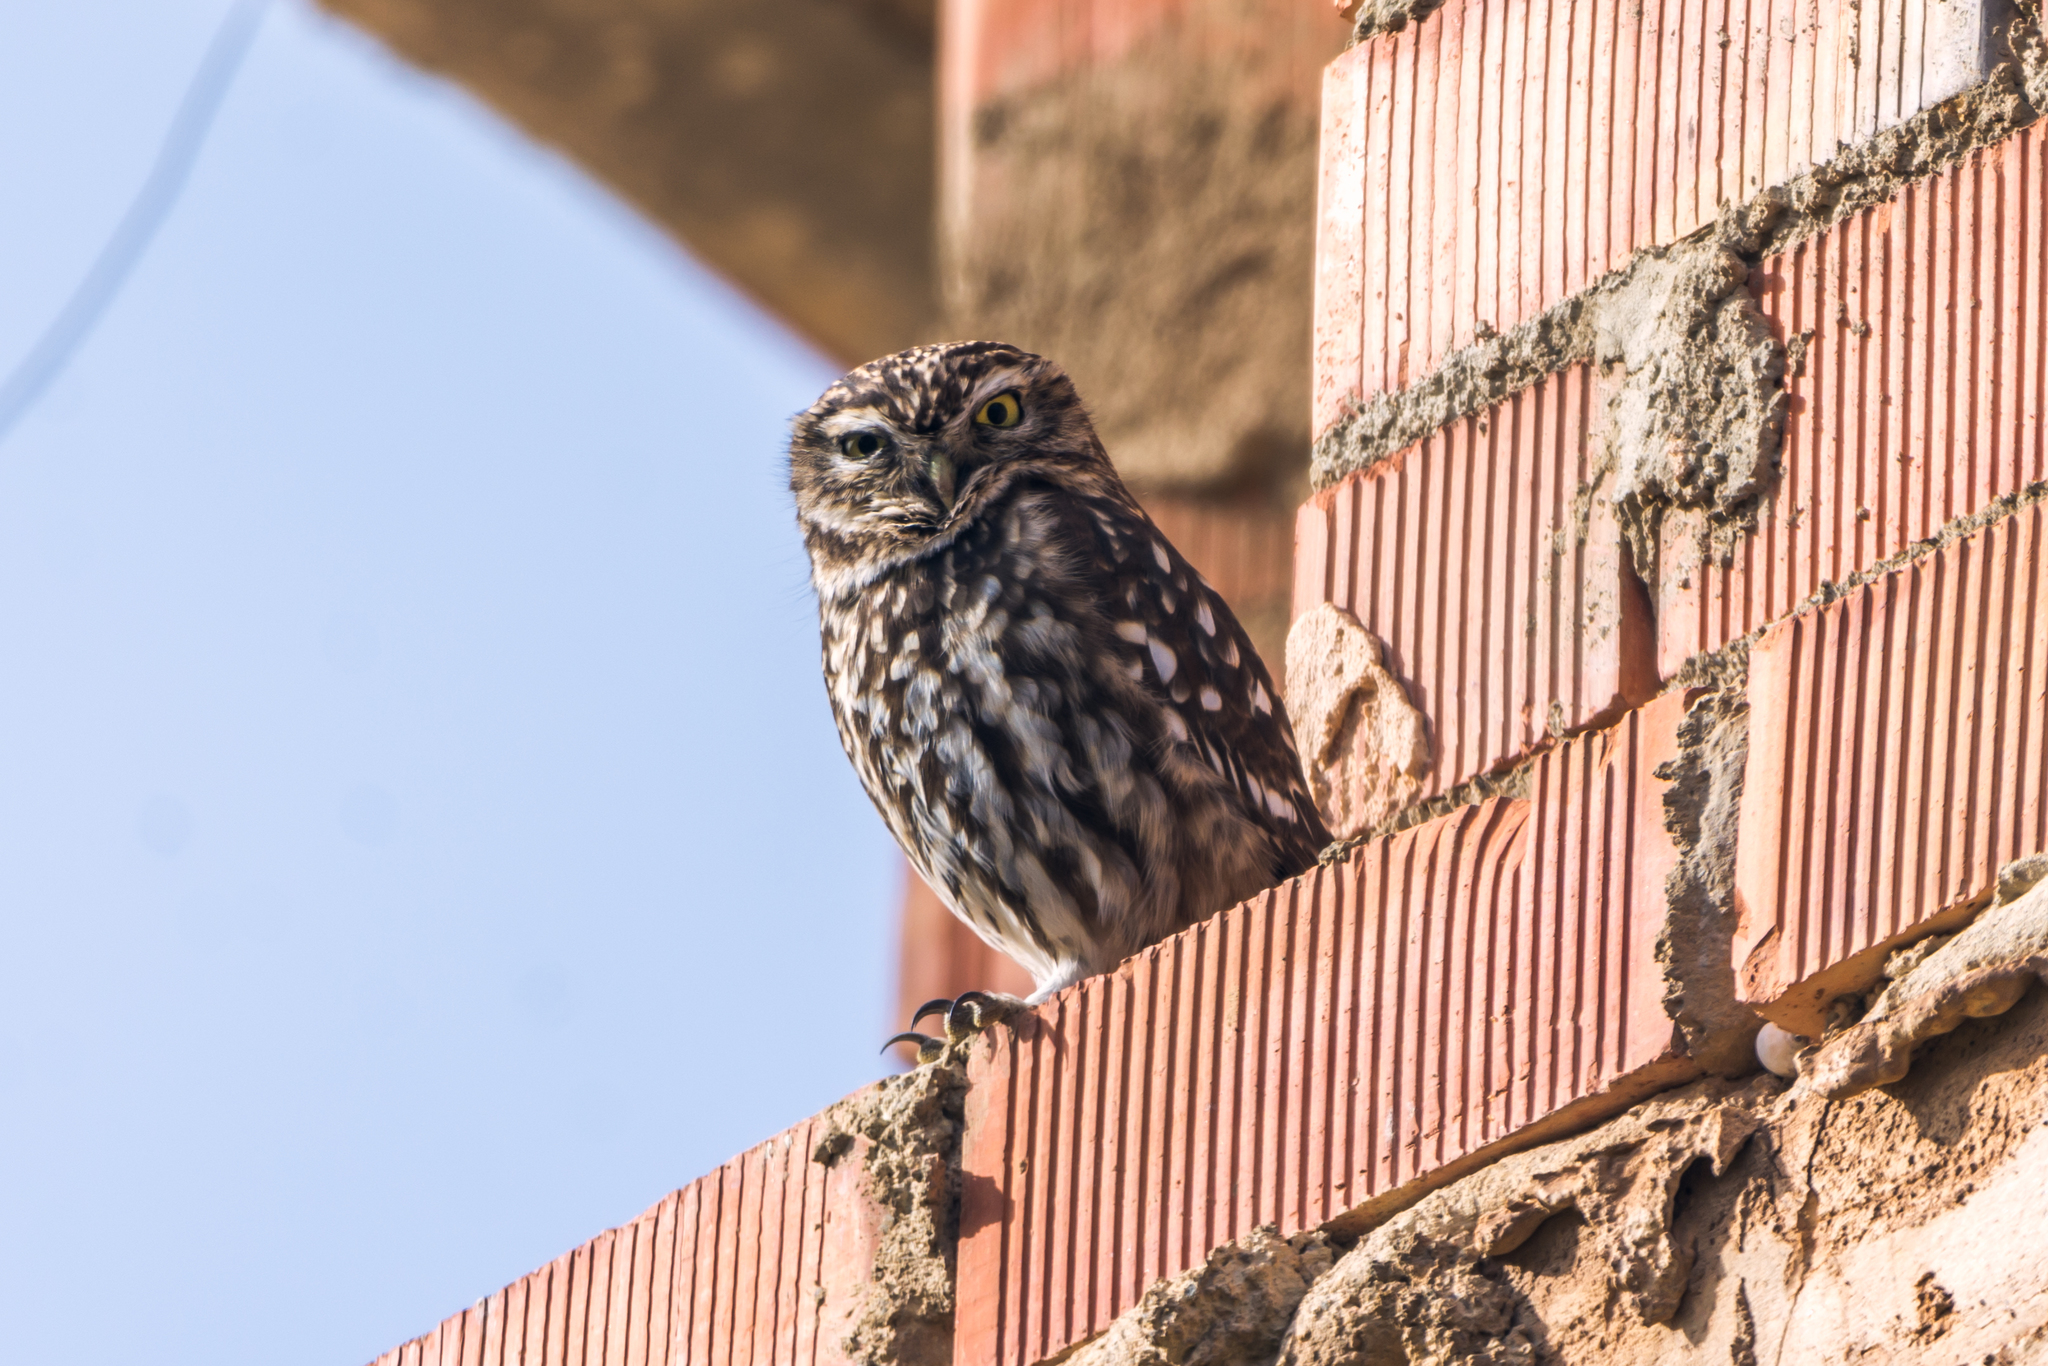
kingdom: Animalia
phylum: Chordata
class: Aves
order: Strigiformes
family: Strigidae
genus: Athene
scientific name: Athene noctua
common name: Little owl
